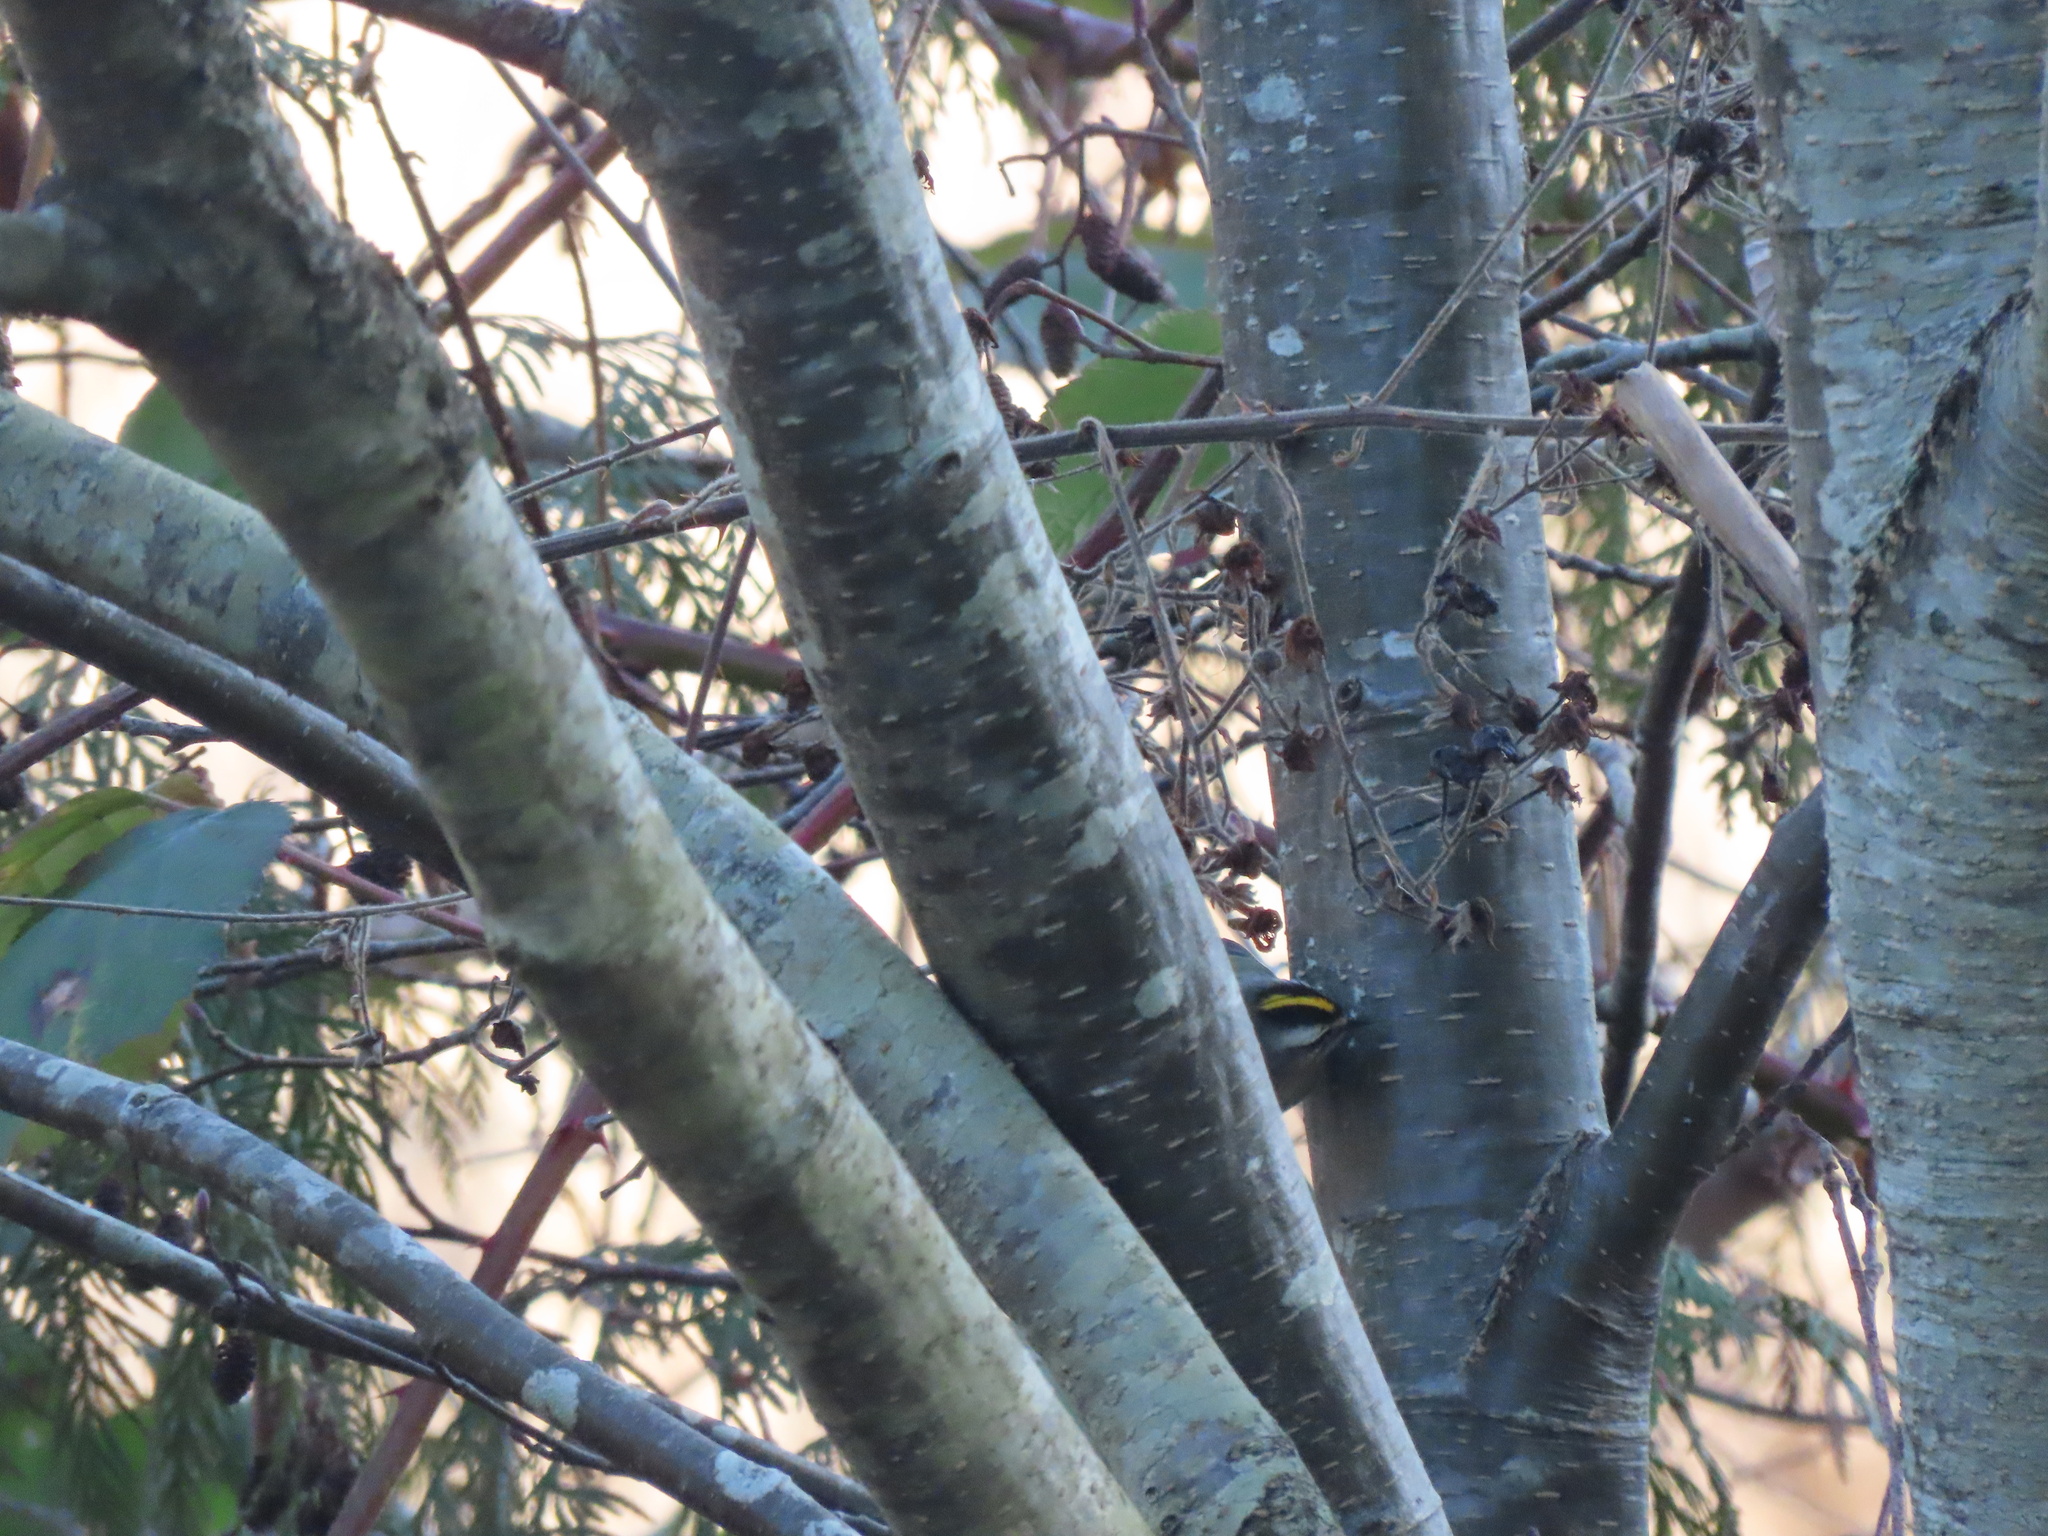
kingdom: Animalia
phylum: Chordata
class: Aves
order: Passeriformes
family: Regulidae
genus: Regulus
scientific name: Regulus satrapa
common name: Golden-crowned kinglet
